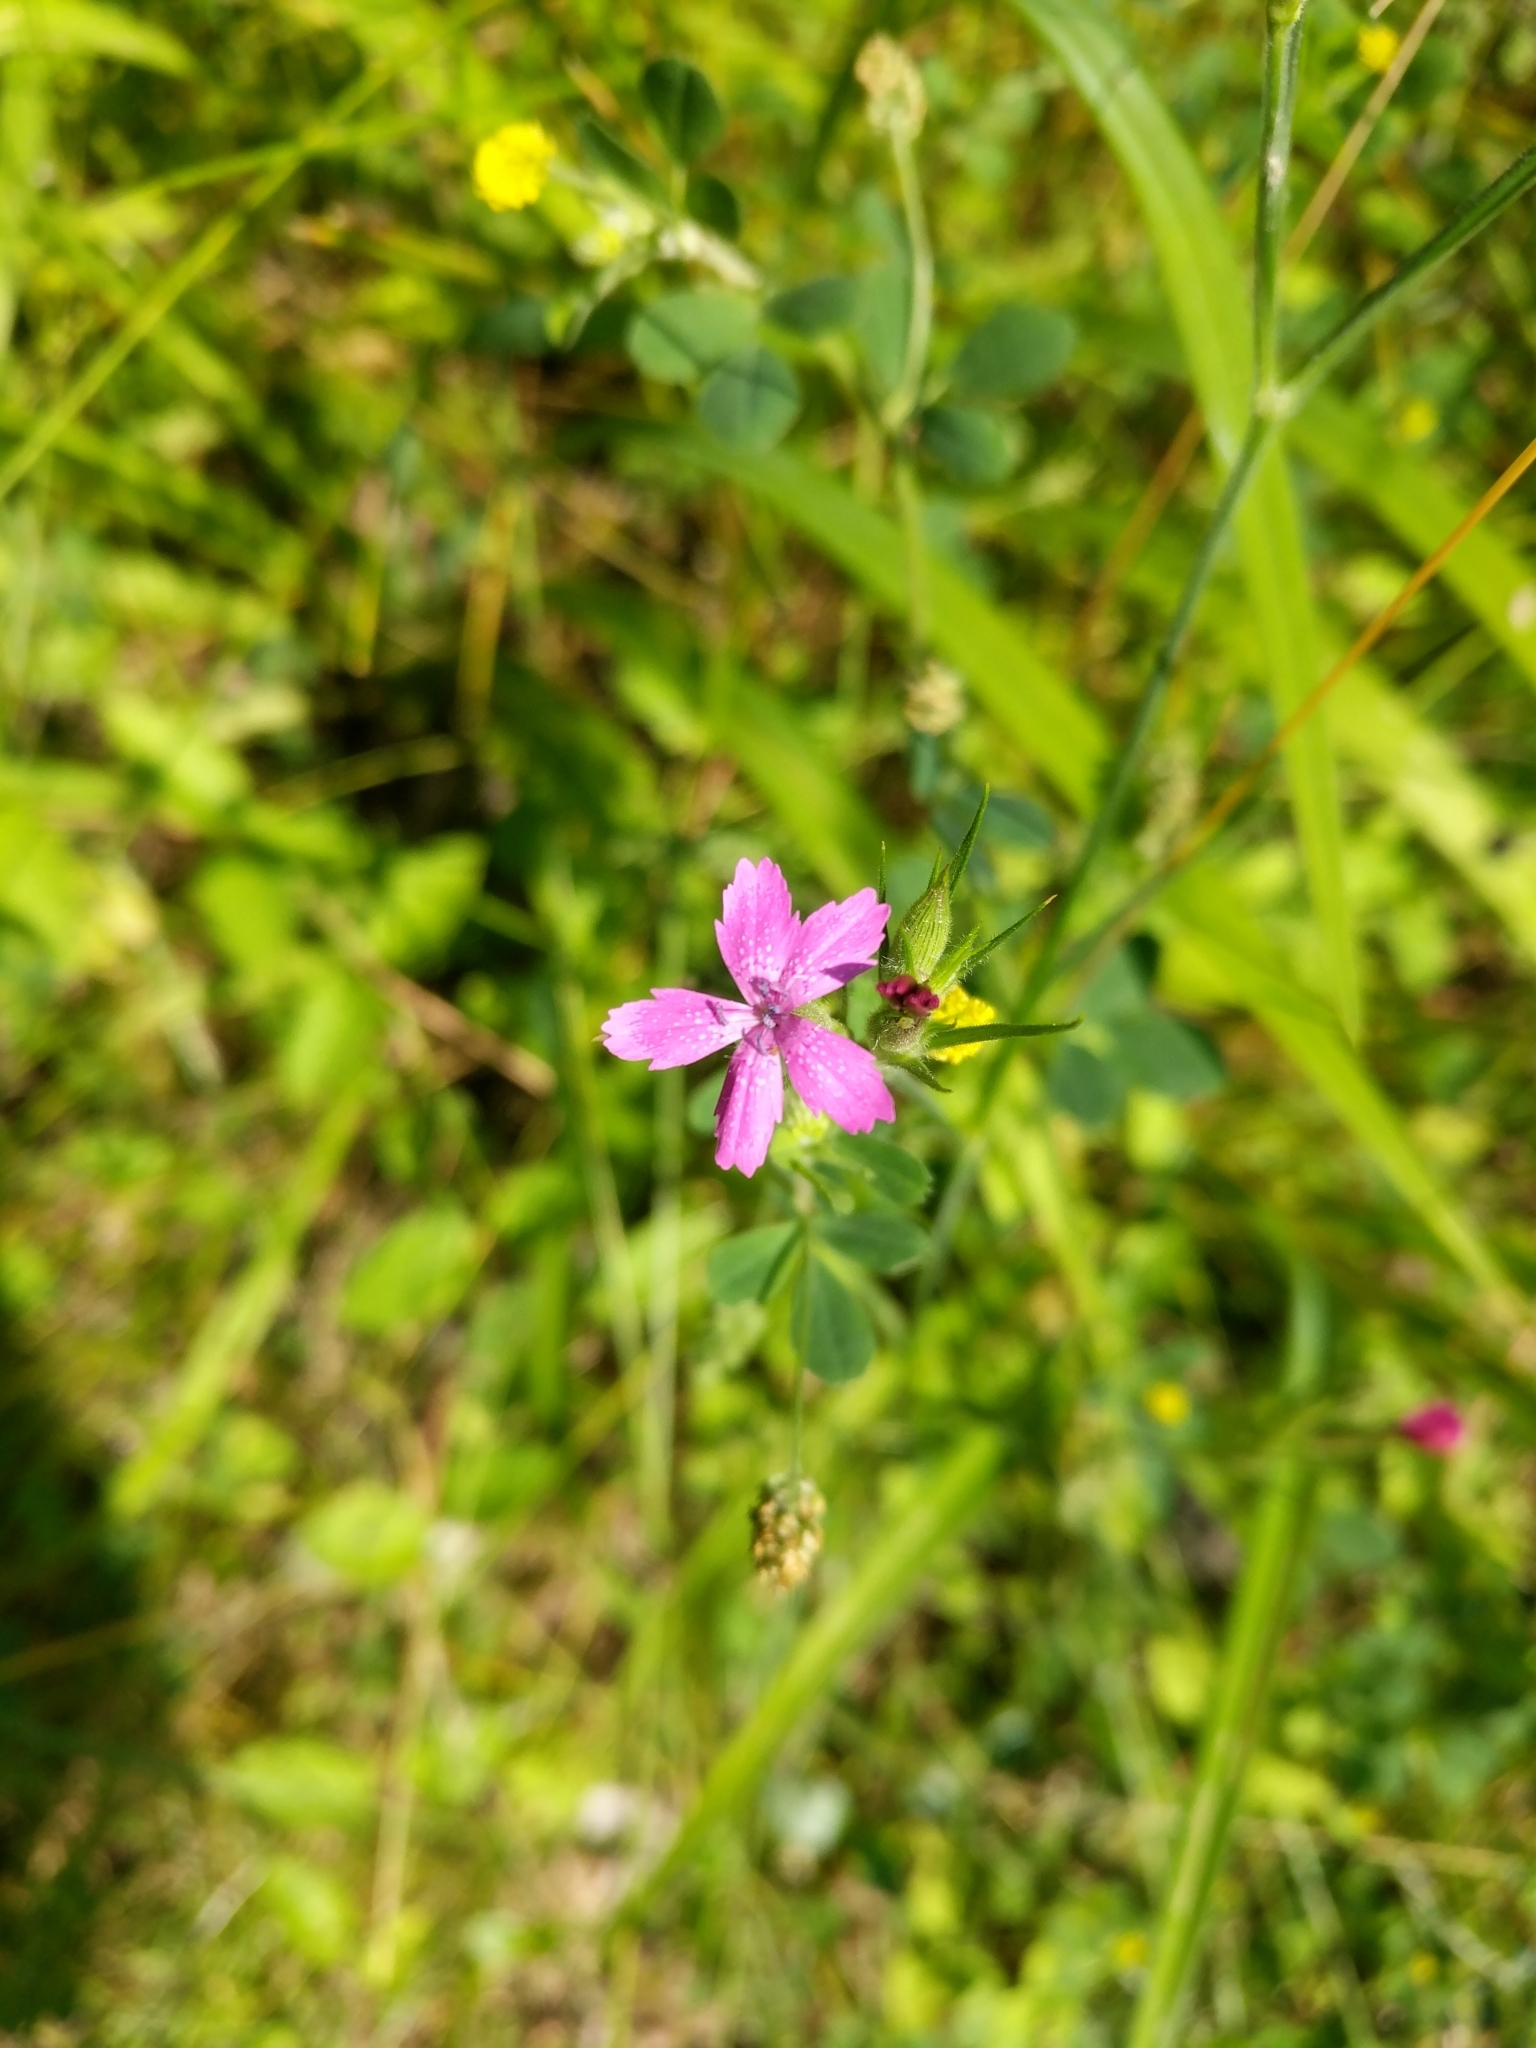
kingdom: Plantae
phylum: Tracheophyta
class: Magnoliopsida
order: Caryophyllales
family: Caryophyllaceae
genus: Dianthus
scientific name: Dianthus armeria
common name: Deptford pink
